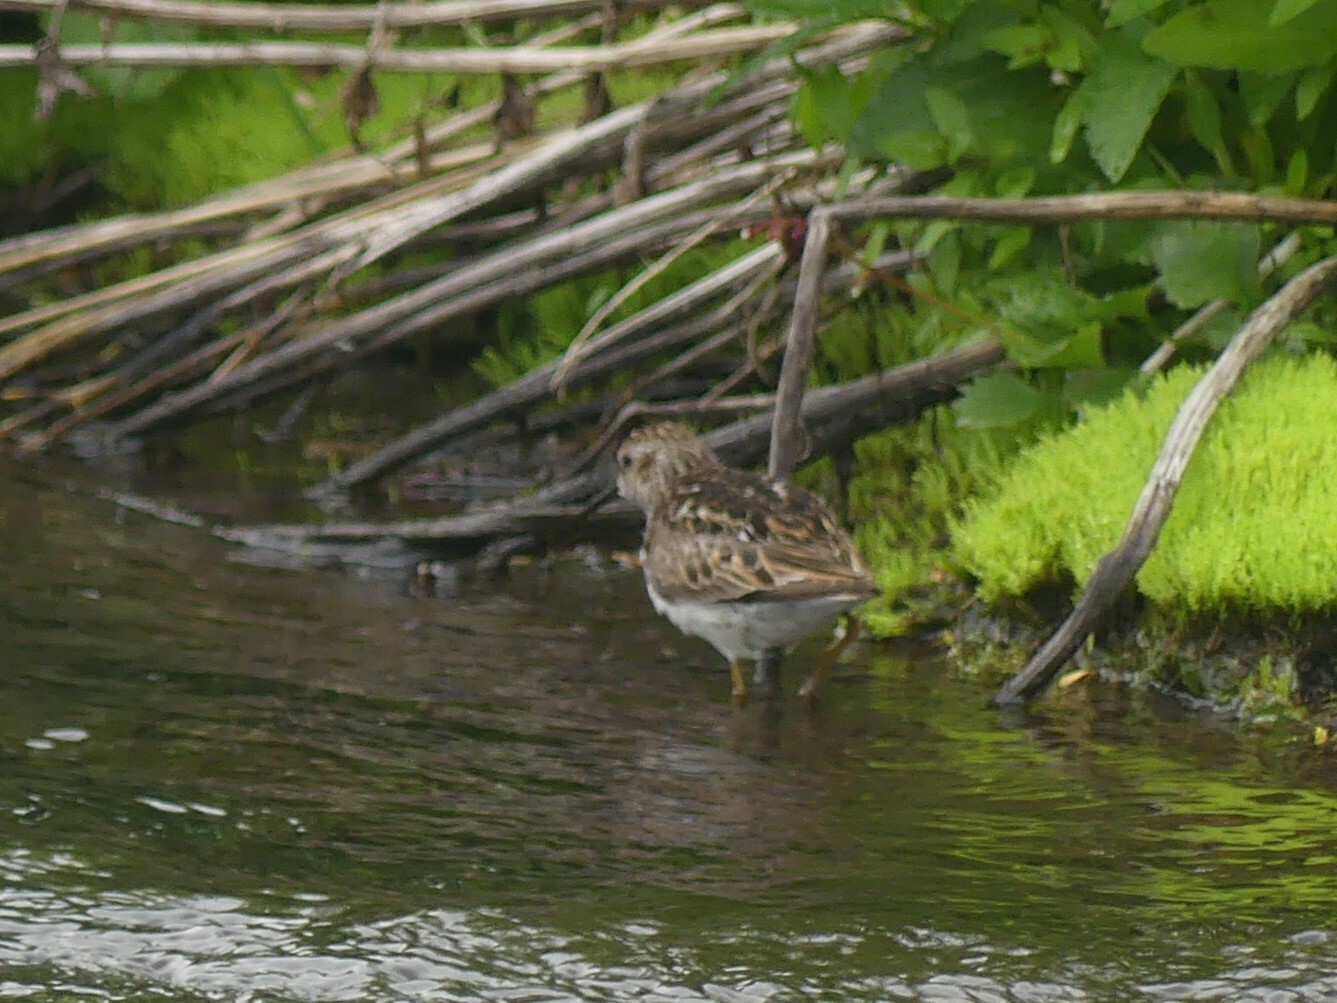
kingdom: Animalia
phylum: Chordata
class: Aves
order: Charadriiformes
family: Scolopacidae
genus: Calidris
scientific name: Calidris minutilla
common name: Least sandpiper
